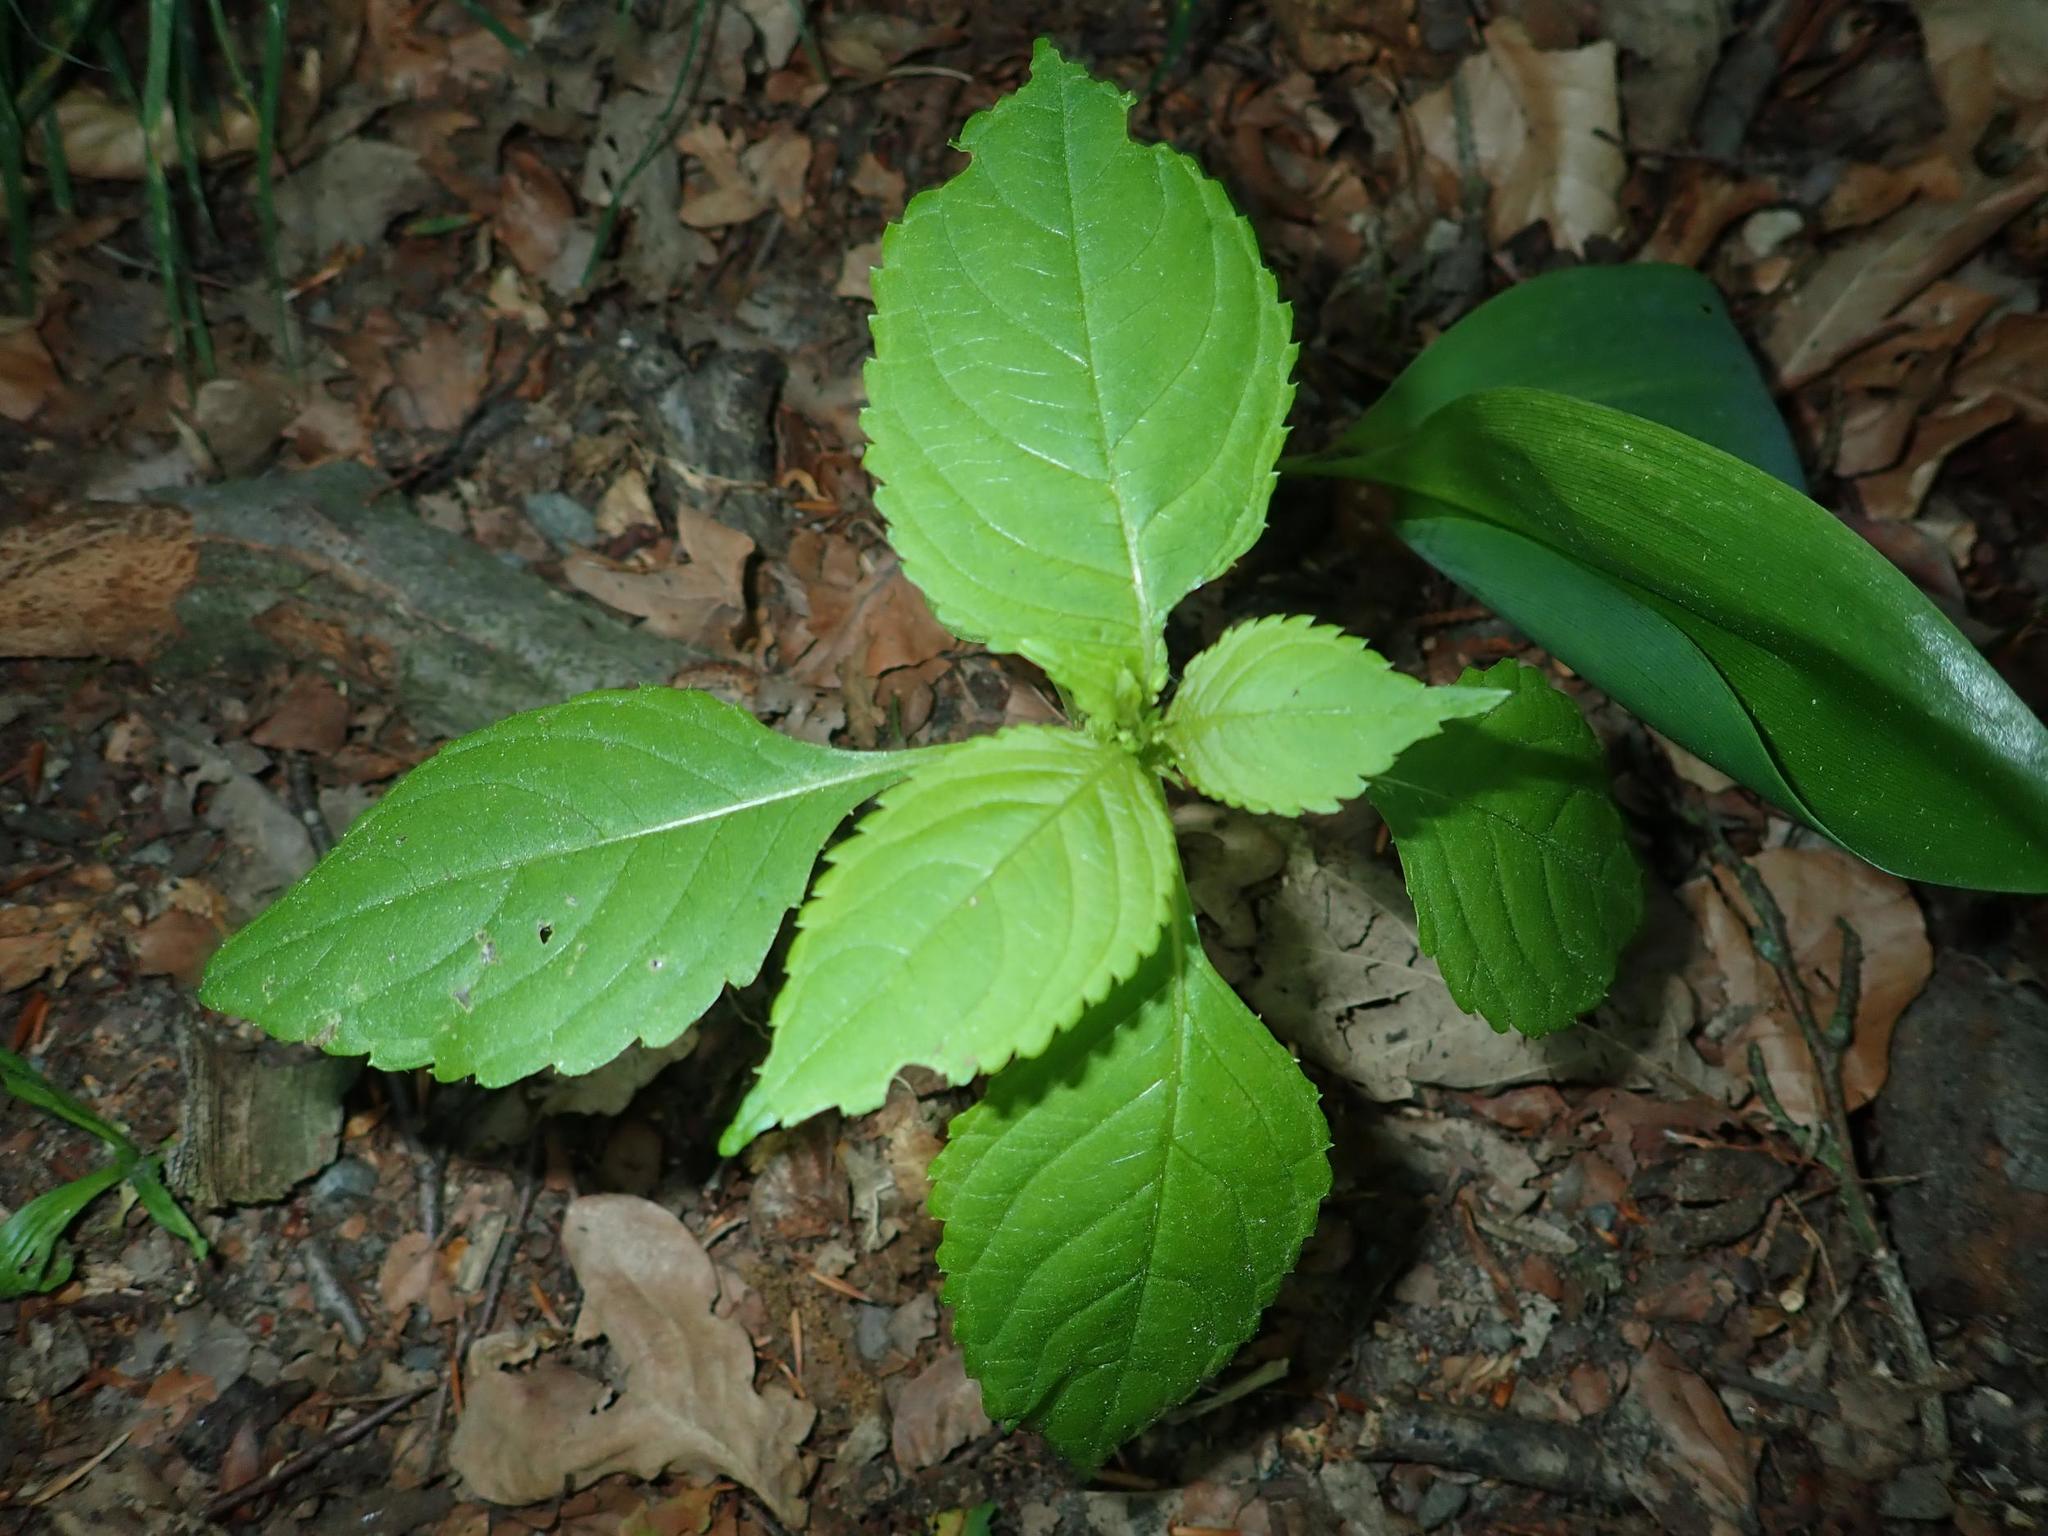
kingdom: Plantae
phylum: Tracheophyta
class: Magnoliopsida
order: Ericales
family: Balsaminaceae
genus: Impatiens
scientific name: Impatiens parviflora
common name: Small balsam
